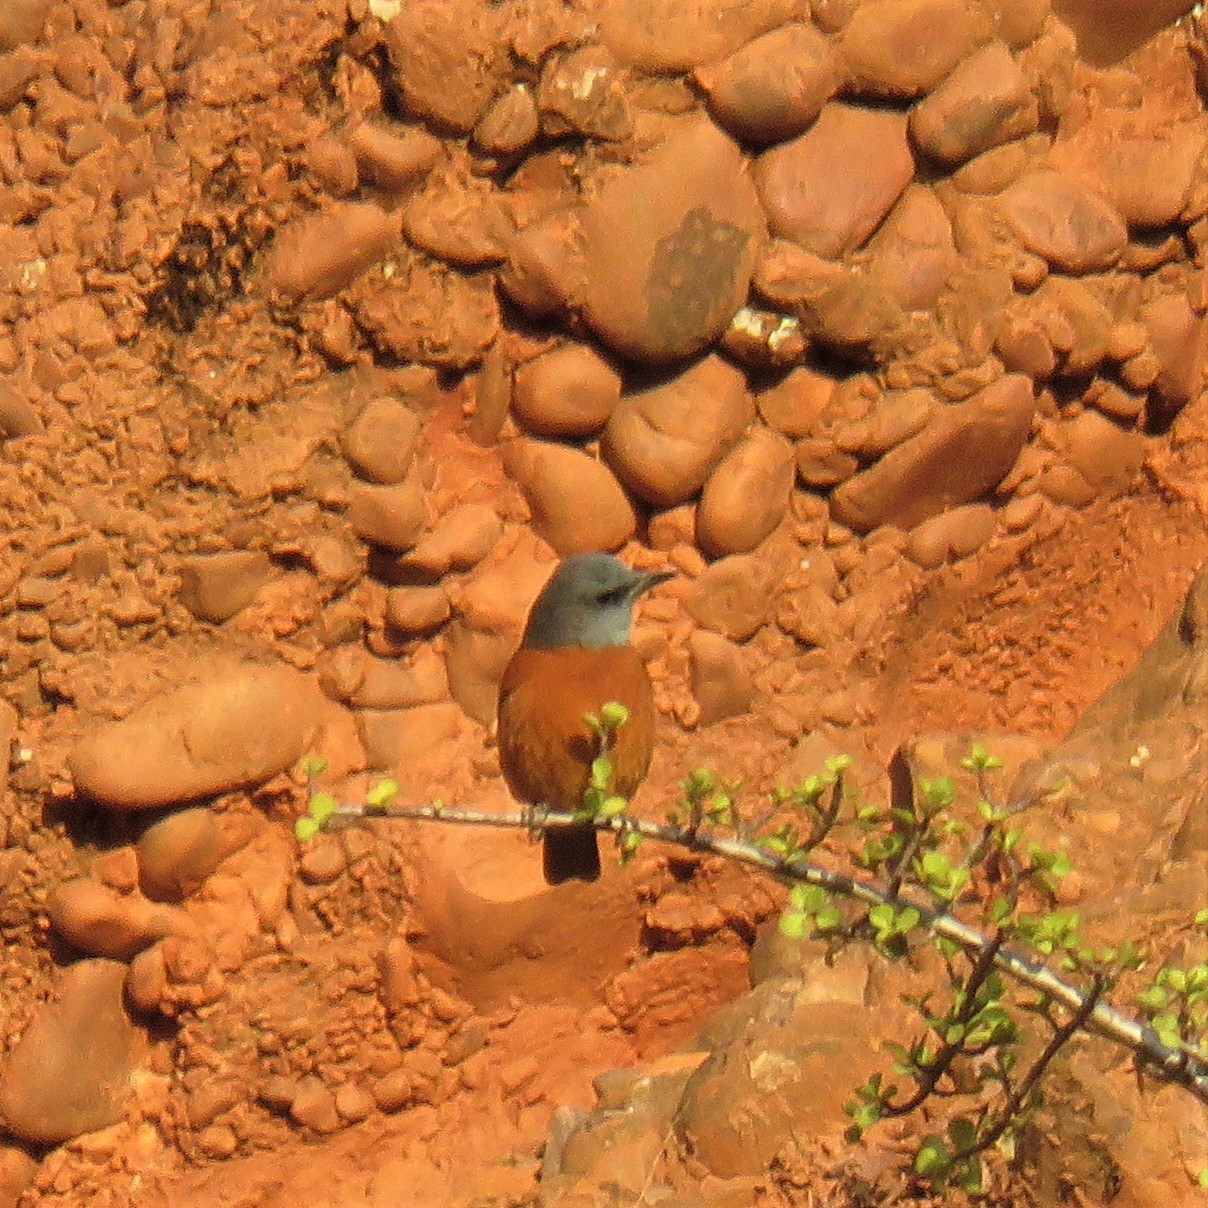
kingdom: Animalia
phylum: Chordata
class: Aves
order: Passeriformes
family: Muscicapidae
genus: Monticola
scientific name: Monticola rupestris
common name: Cape rock thrush
